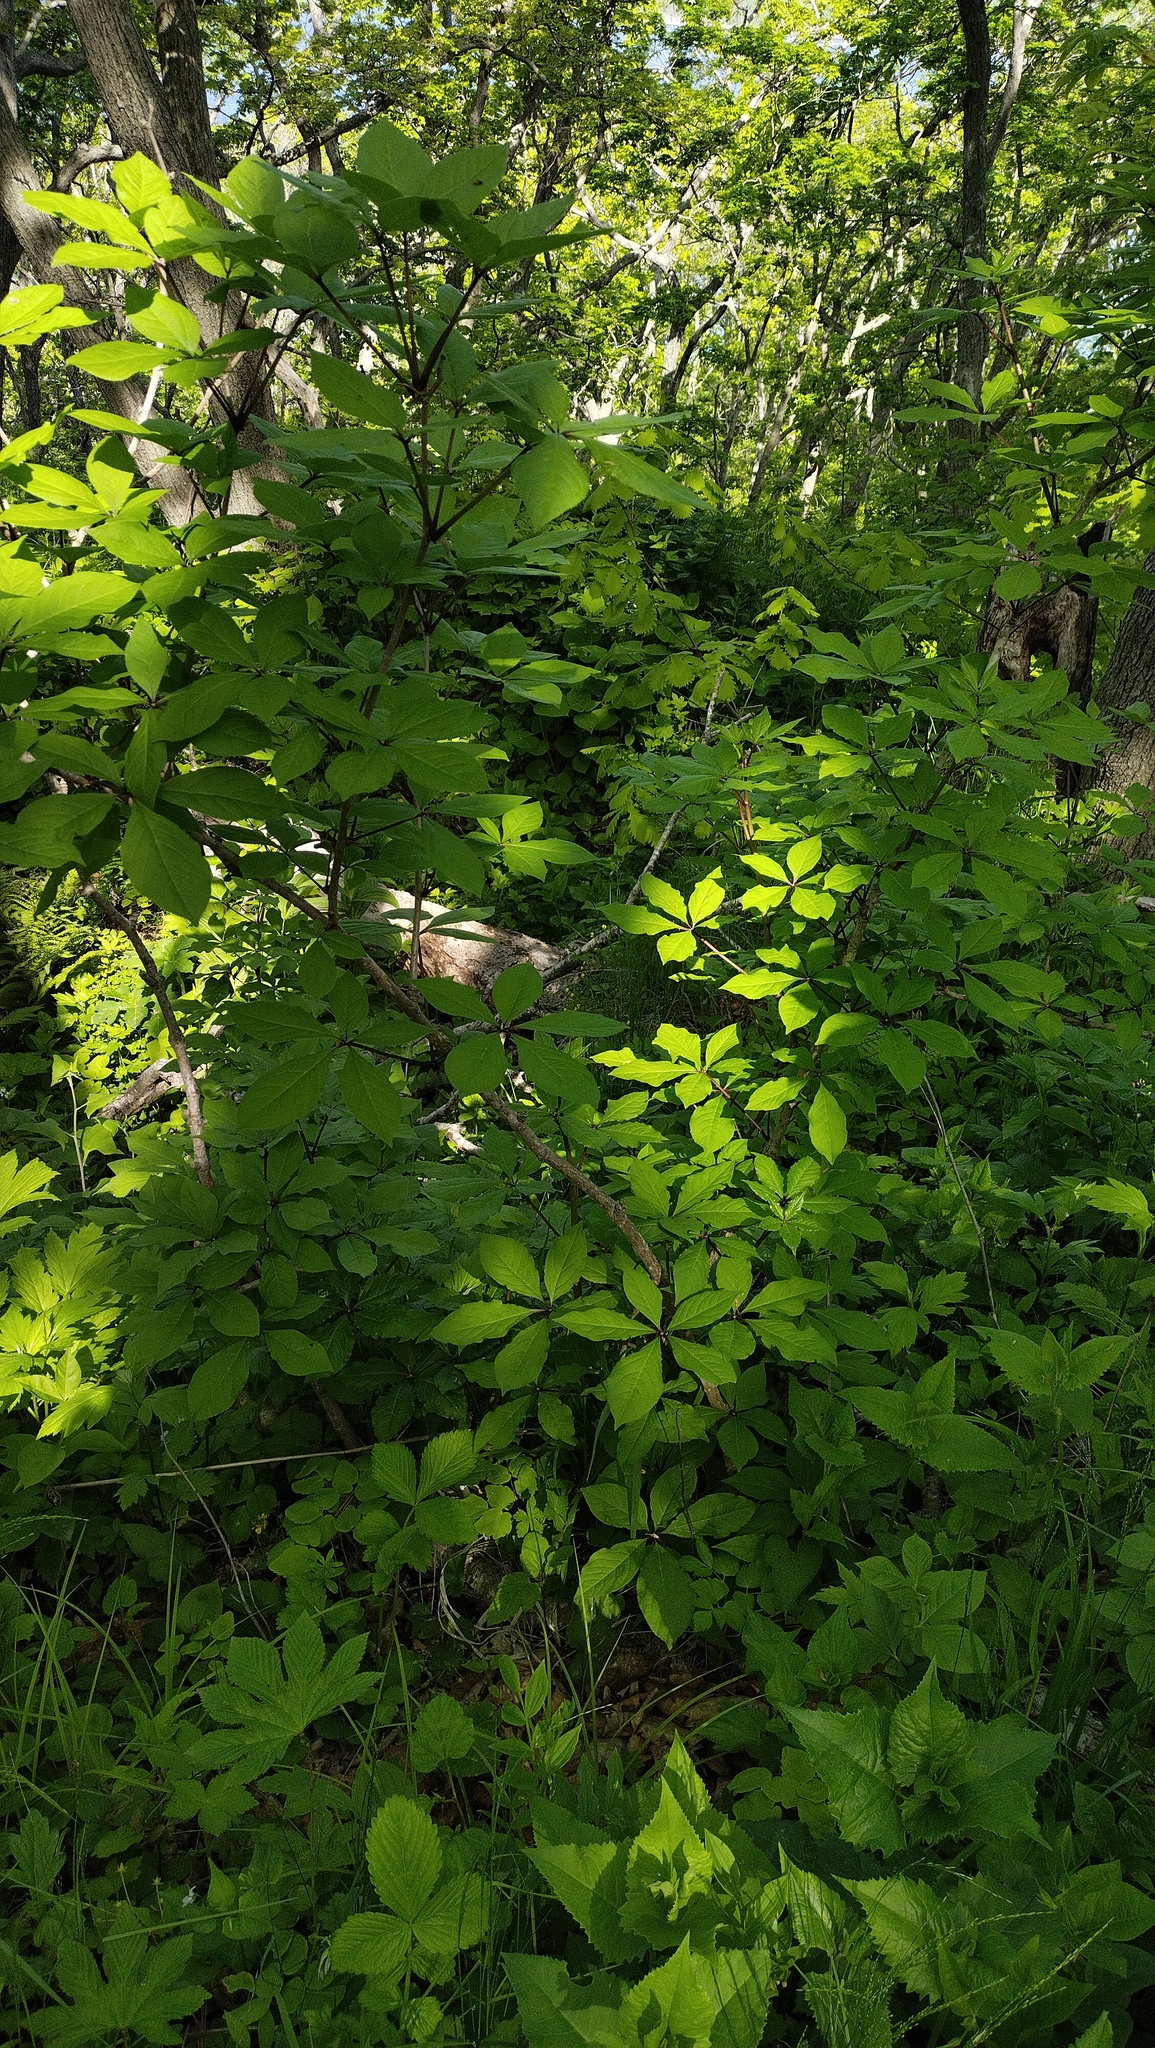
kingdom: Plantae
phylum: Tracheophyta
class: Magnoliopsida
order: Apiales
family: Araliaceae
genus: Eleutherococcus
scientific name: Eleutherococcus sessiliflorus
